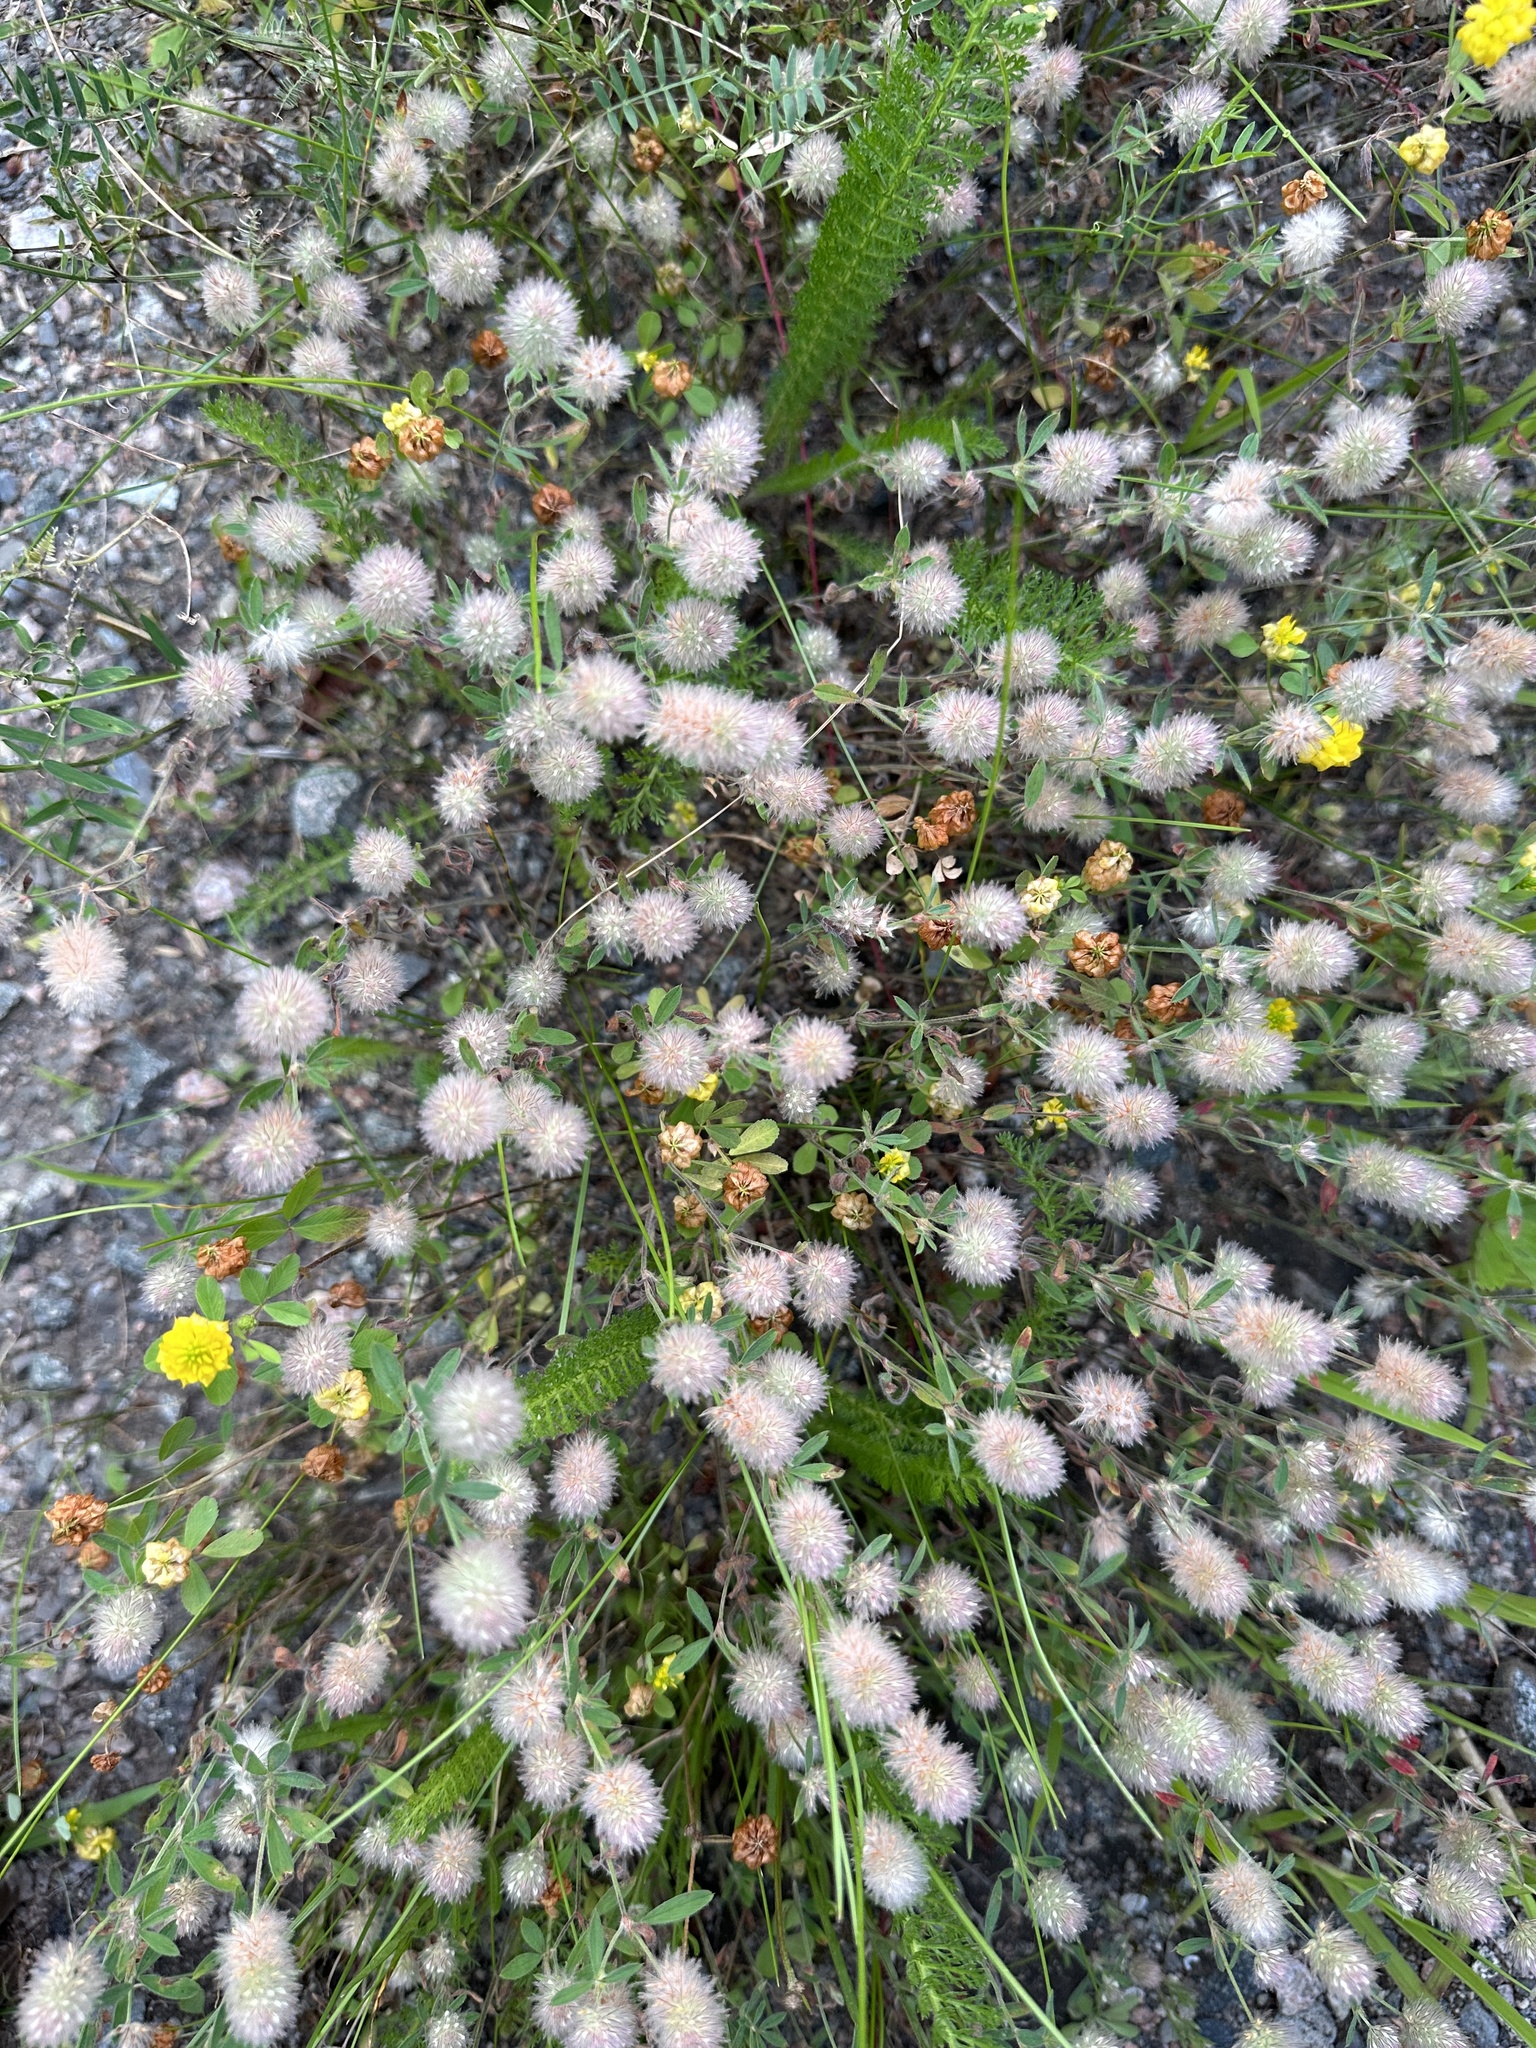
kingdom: Plantae
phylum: Tracheophyta
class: Magnoliopsida
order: Fabales
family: Fabaceae
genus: Trifolium
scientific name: Trifolium arvense
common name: Hare's-foot clover
